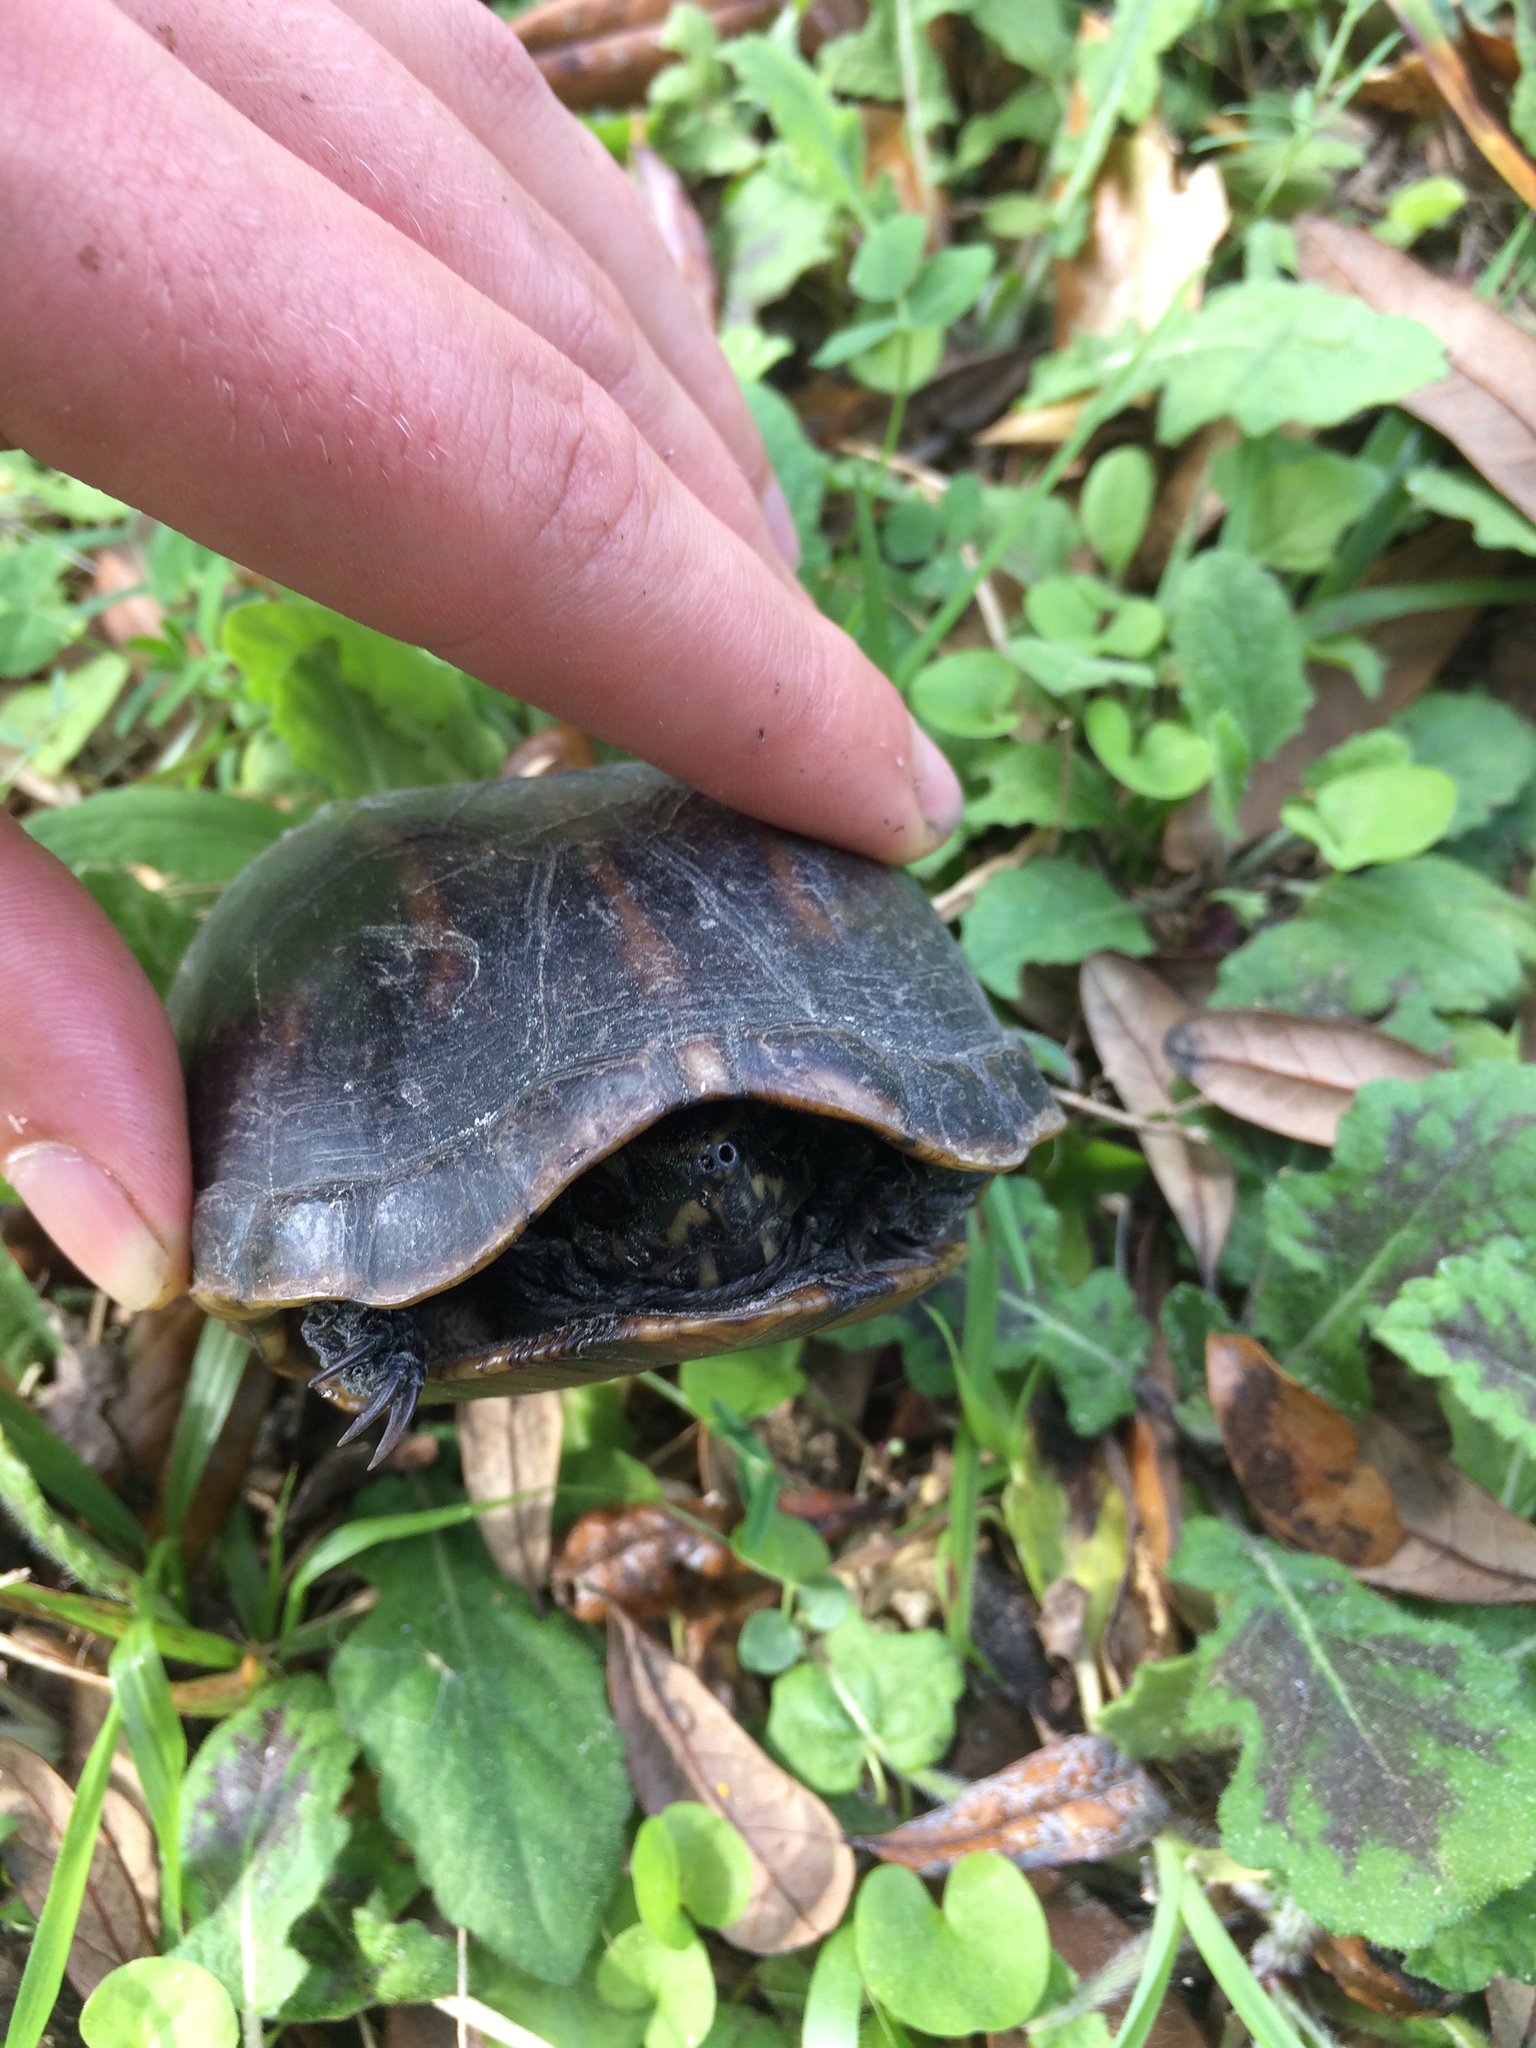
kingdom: Animalia
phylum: Chordata
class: Testudines
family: Kinosternidae
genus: Kinosternon
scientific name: Kinosternon baurii
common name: Striped mud turtle
